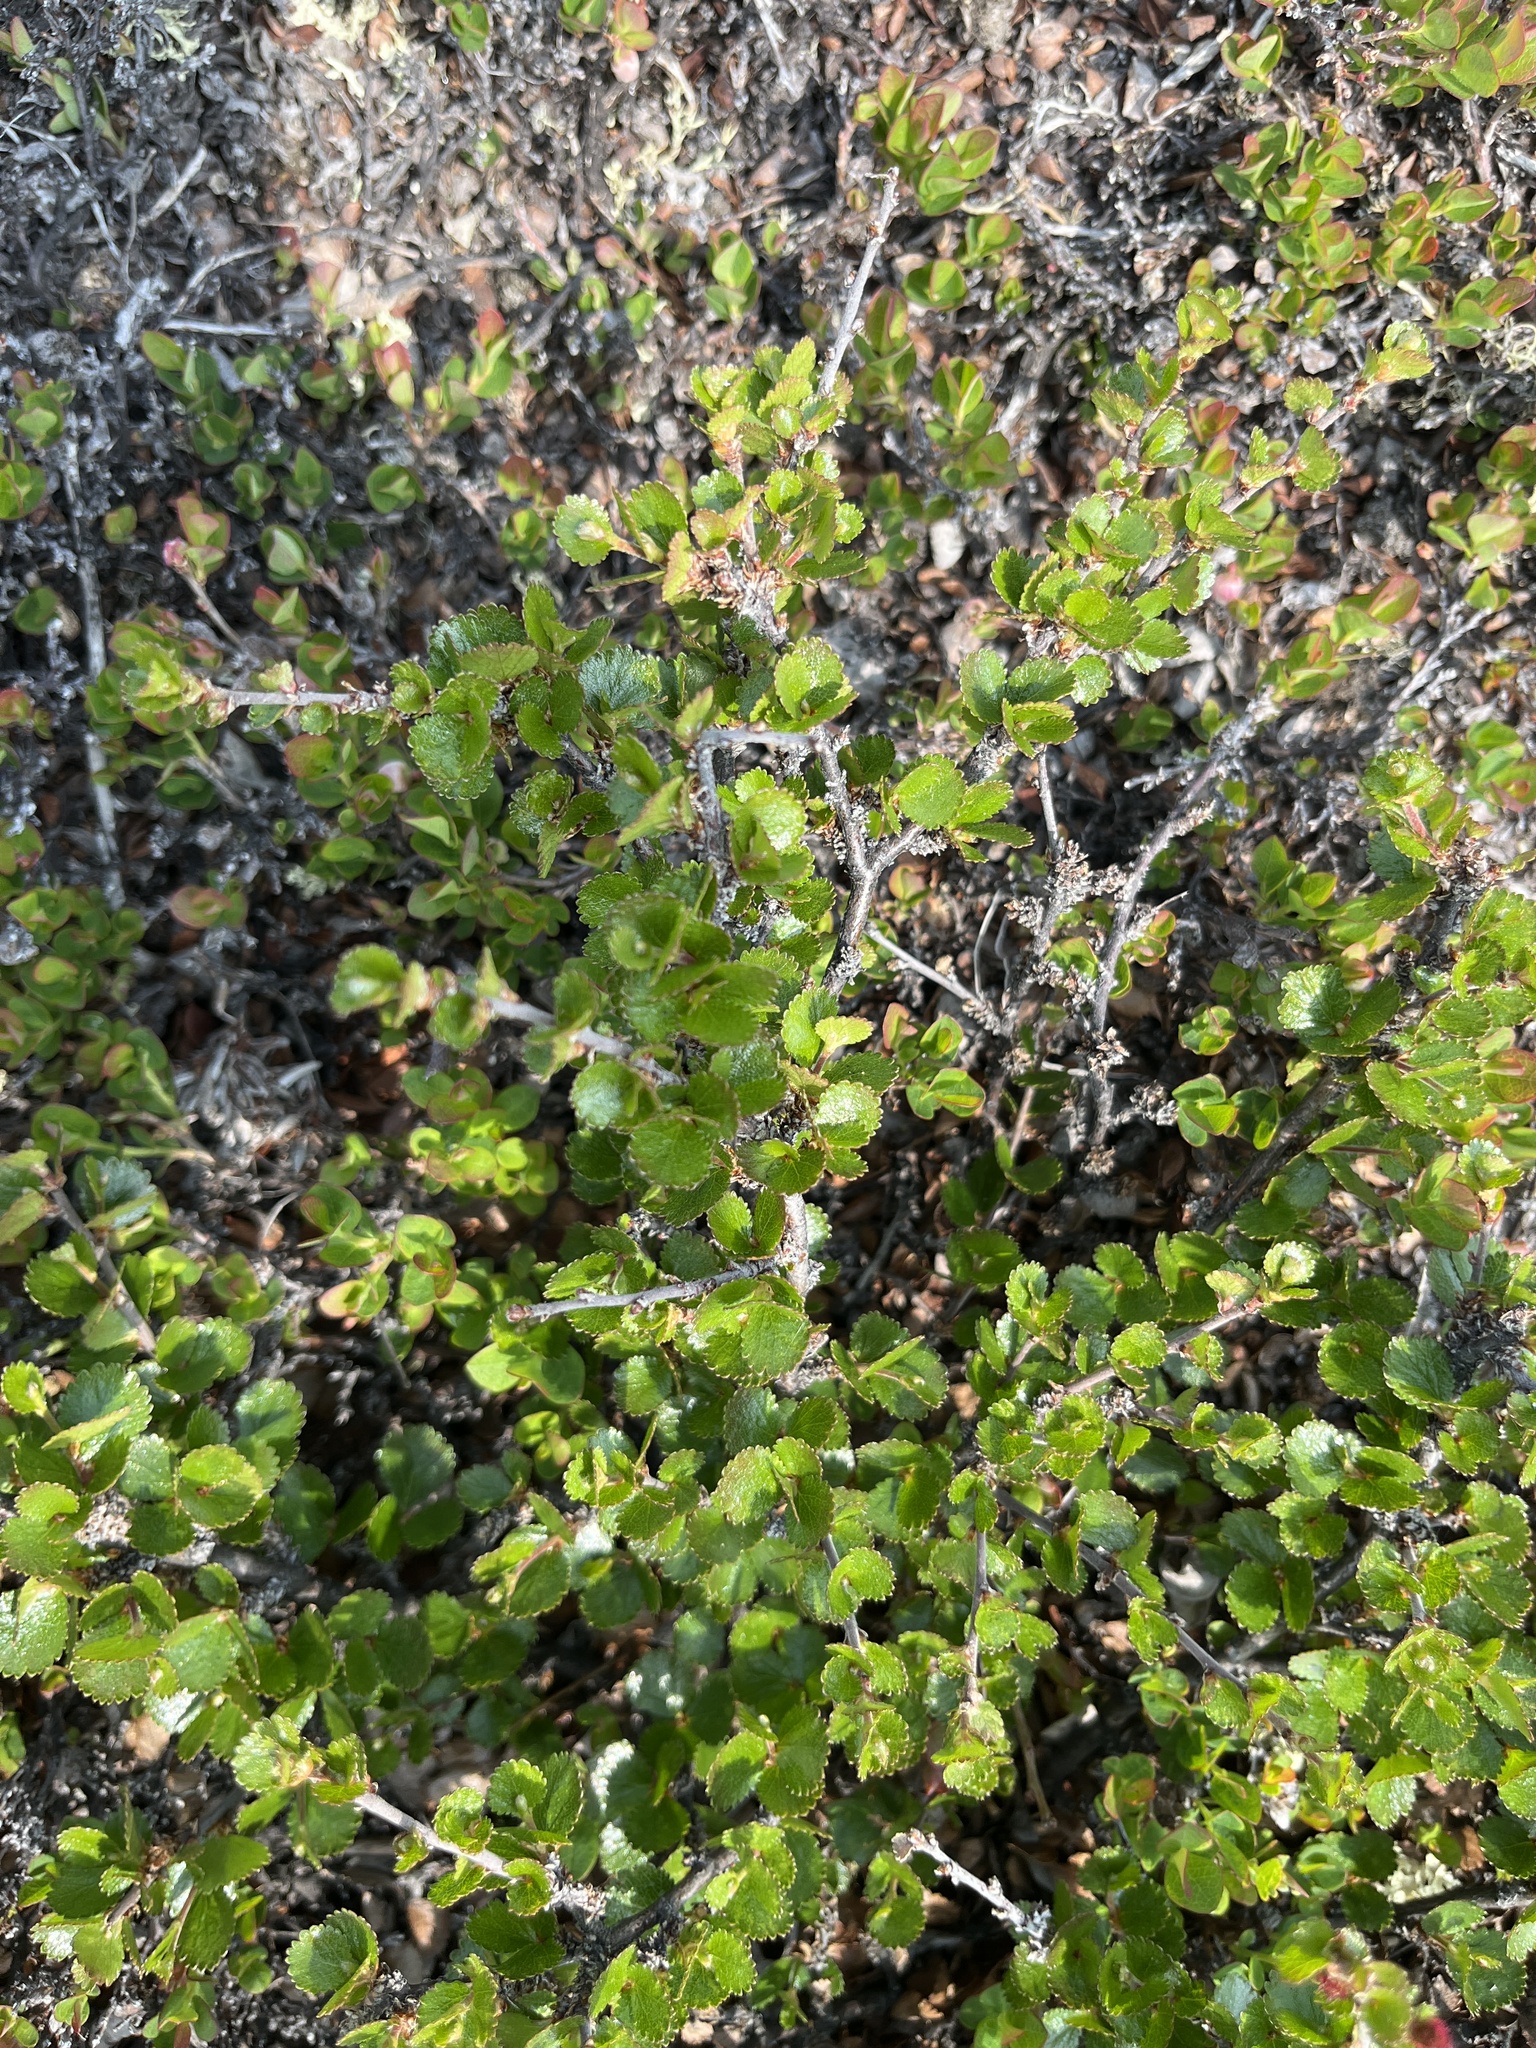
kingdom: Plantae
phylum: Tracheophyta
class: Magnoliopsida
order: Fagales
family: Betulaceae
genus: Betula
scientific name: Betula nana
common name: Arctic dwarf birch
